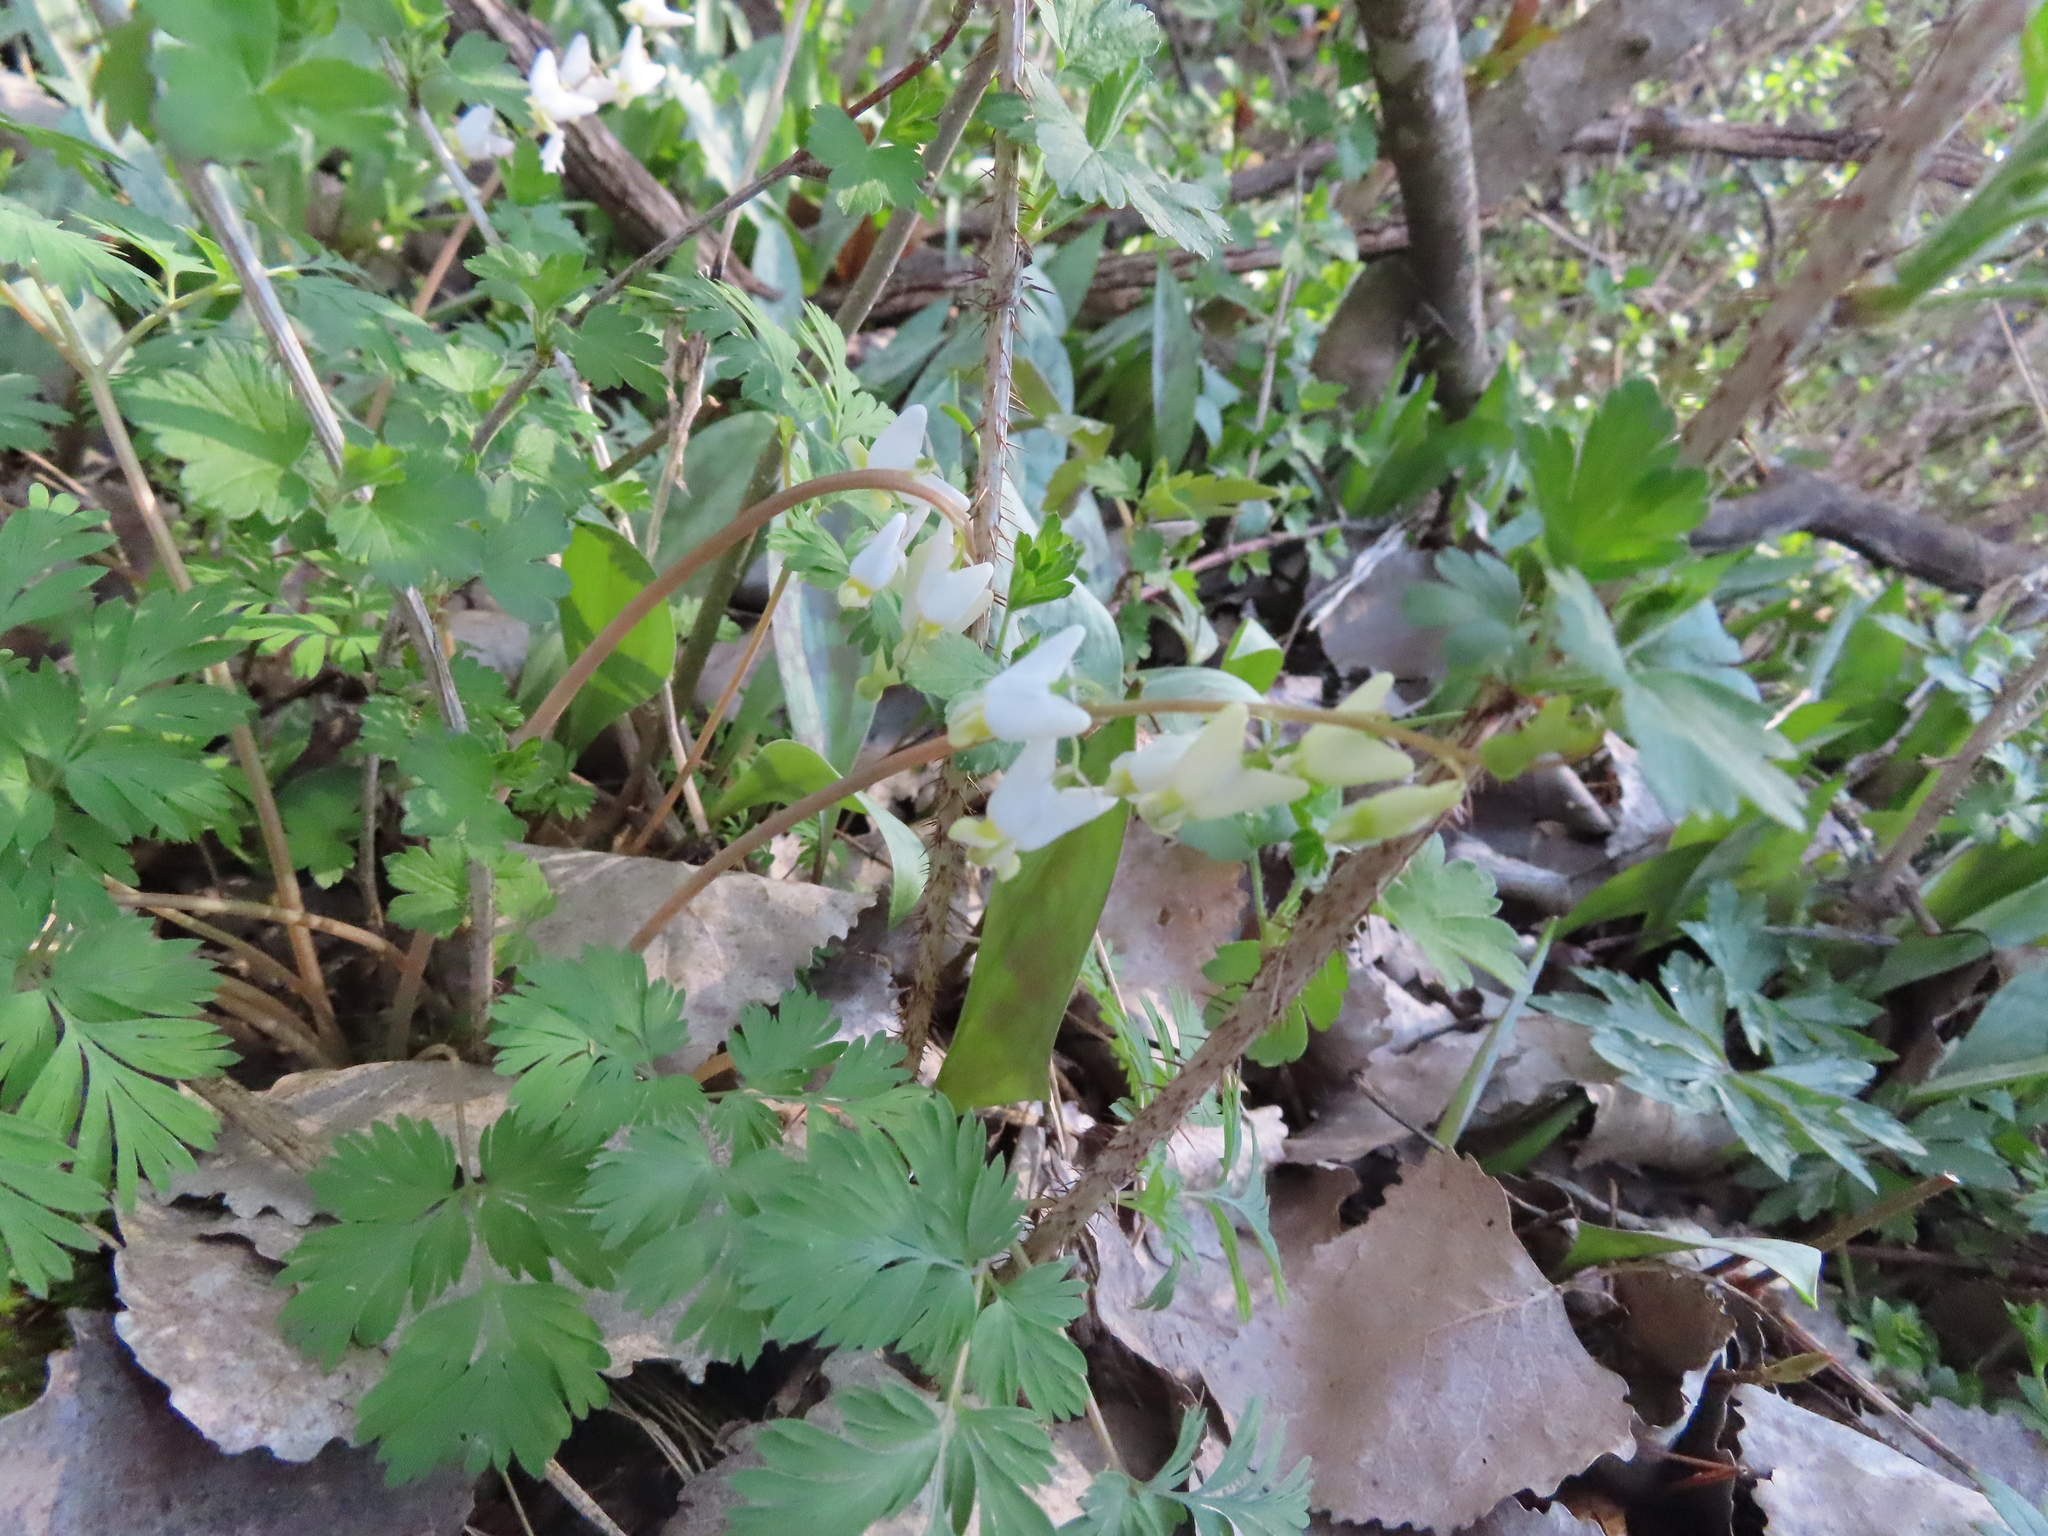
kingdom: Plantae
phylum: Tracheophyta
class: Magnoliopsida
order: Ranunculales
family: Papaveraceae
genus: Dicentra
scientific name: Dicentra cucullaria
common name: Dutchman's breeches
